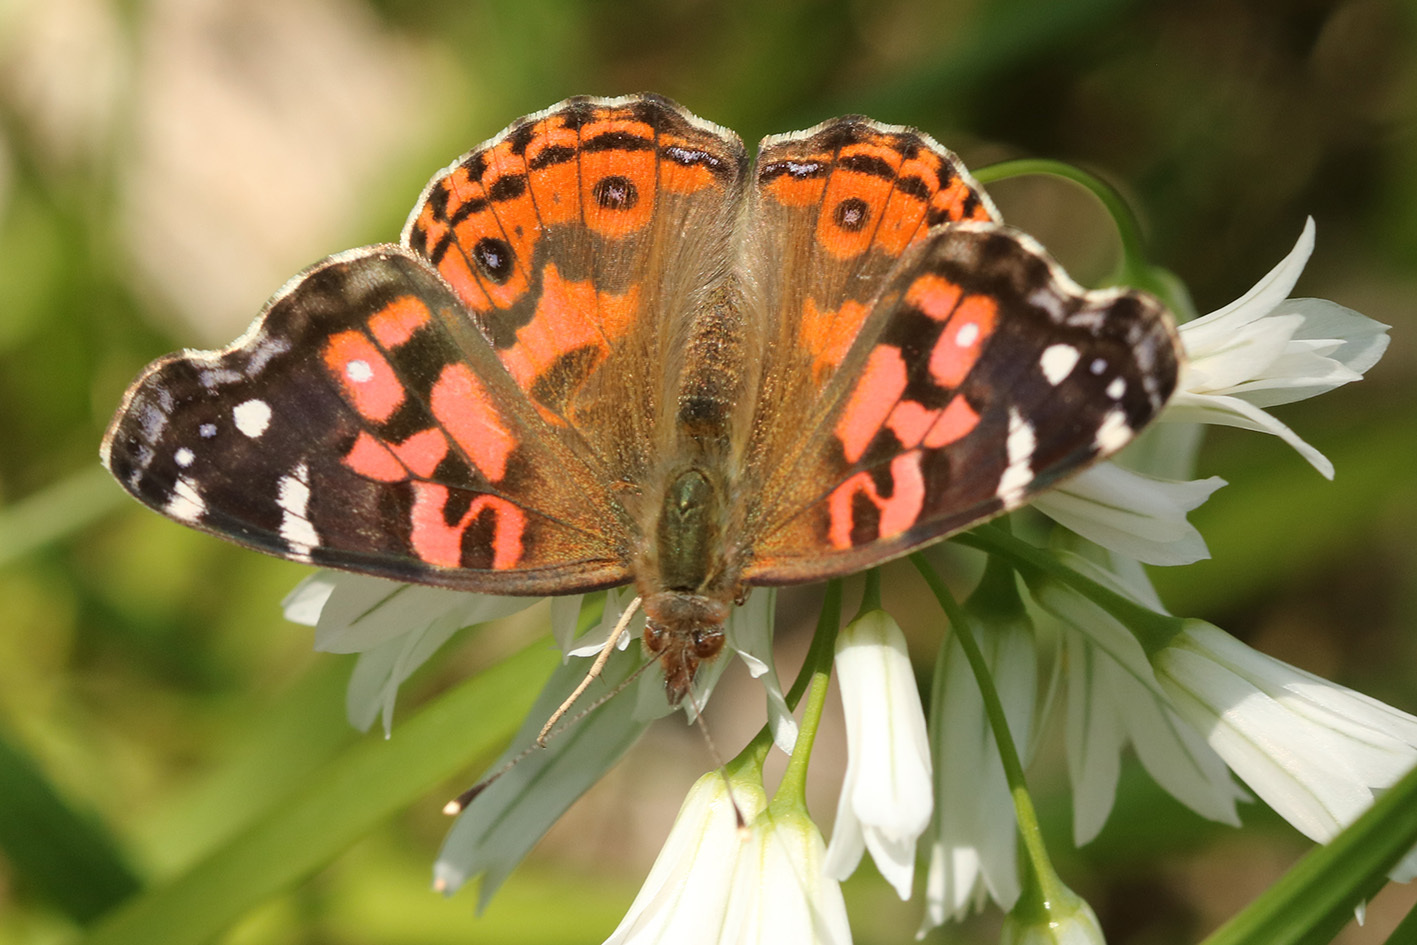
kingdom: Animalia
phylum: Arthropoda
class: Insecta
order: Lepidoptera
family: Nymphalidae
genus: Vanessa
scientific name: Vanessa braziliensis
